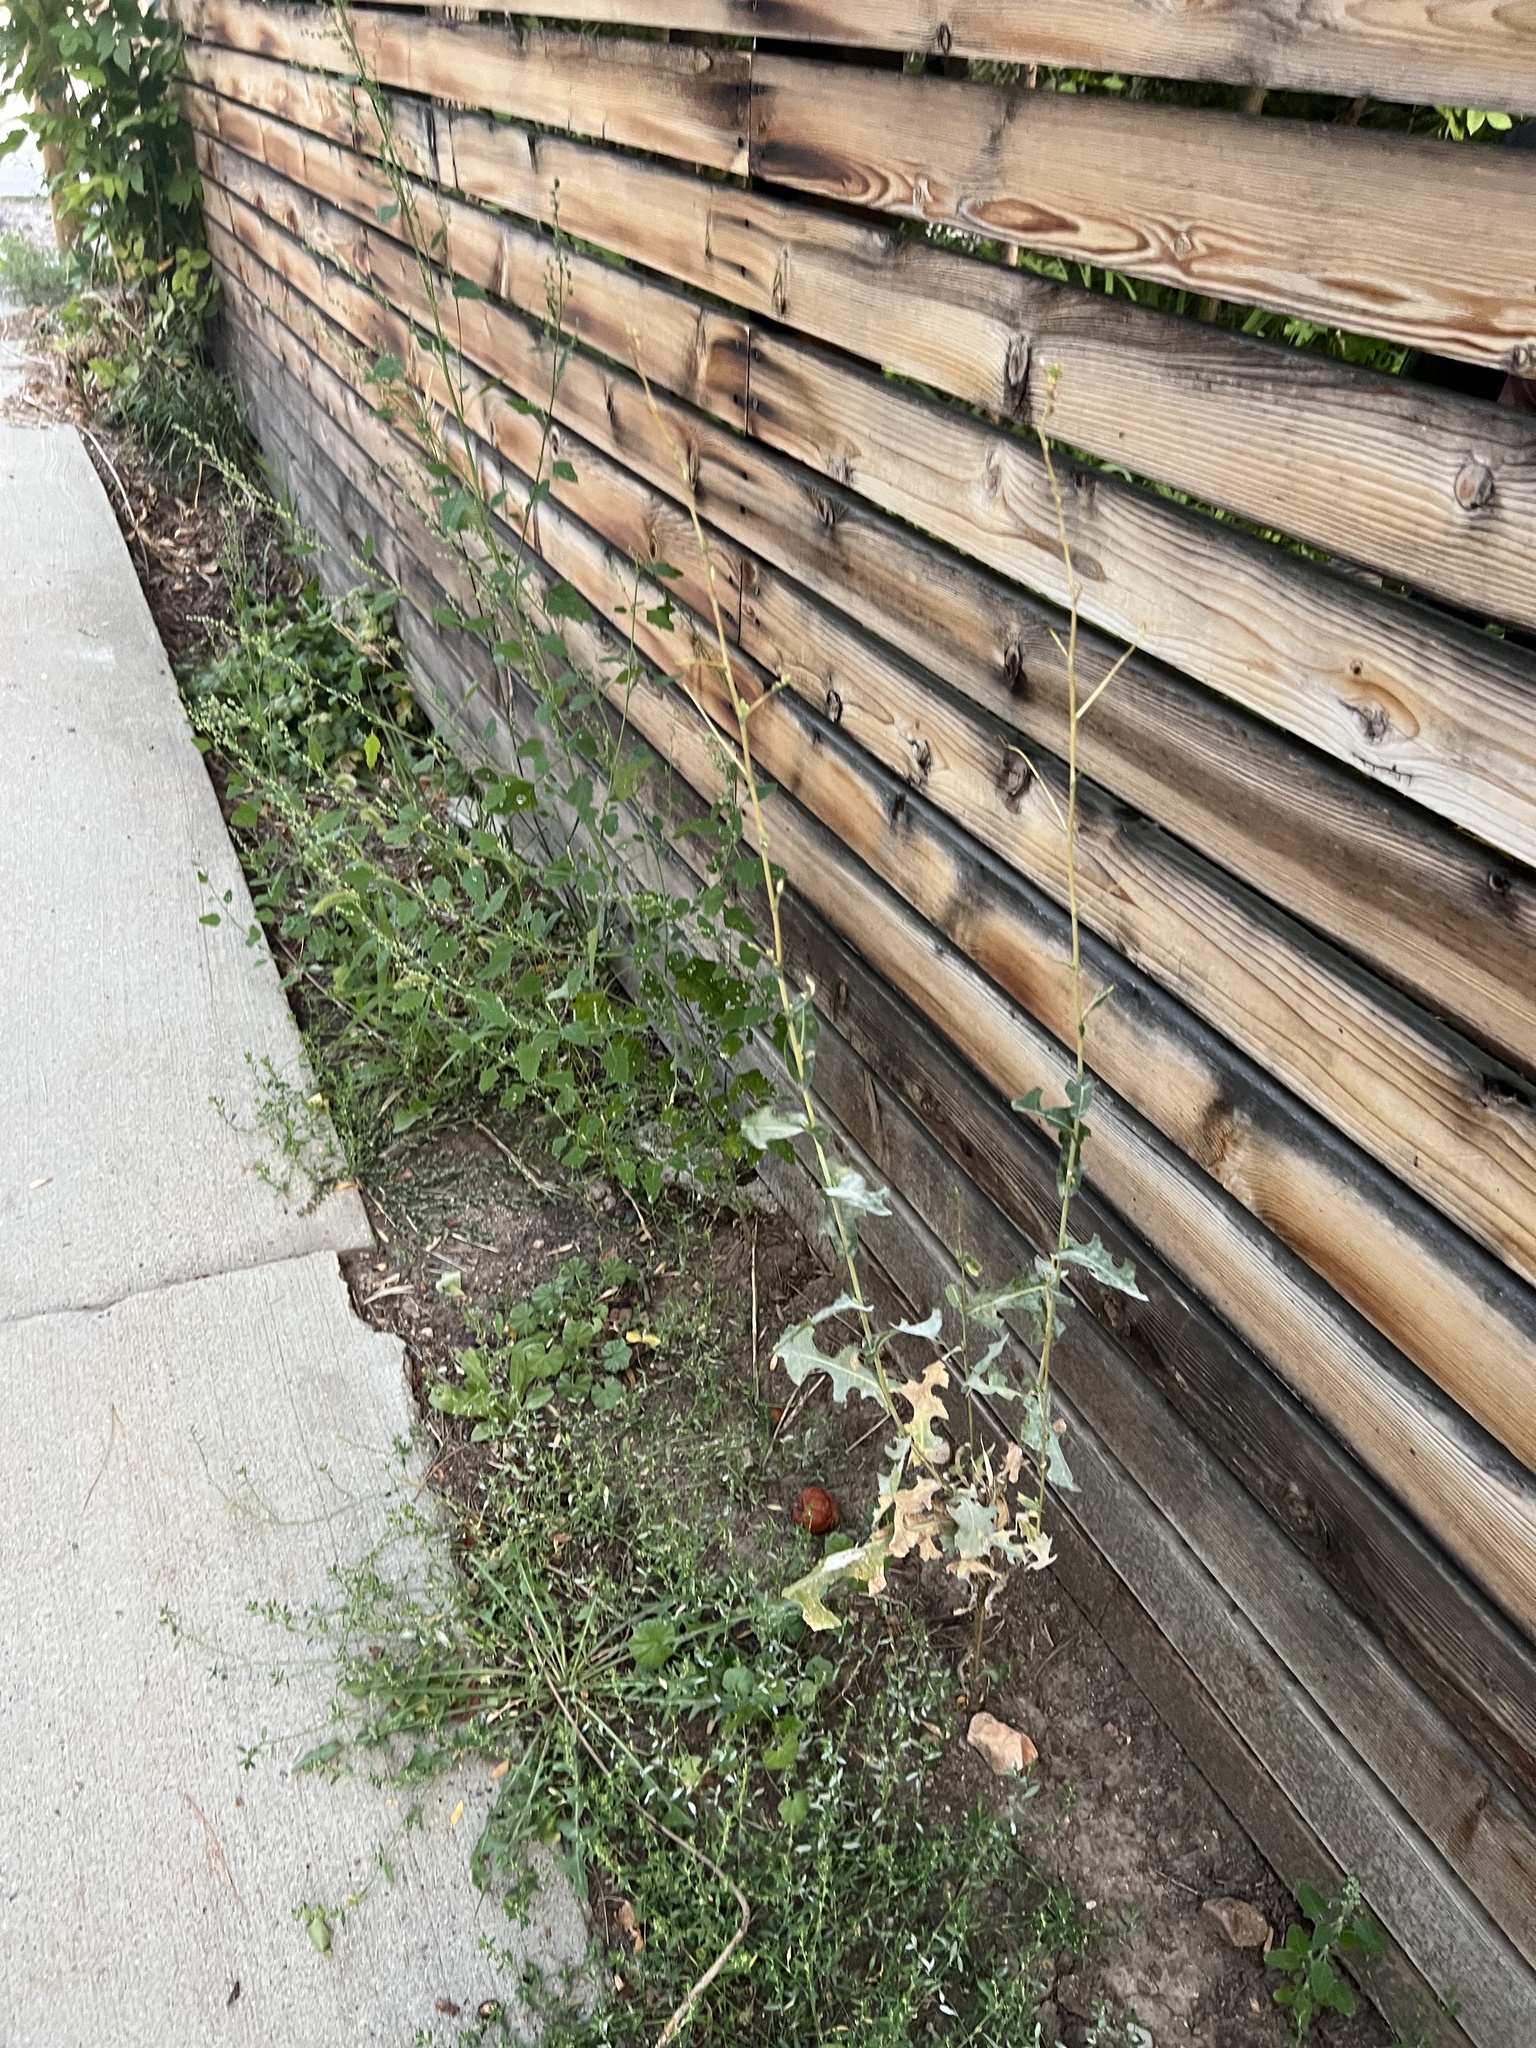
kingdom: Plantae
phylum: Tracheophyta
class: Magnoliopsida
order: Asterales
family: Asteraceae
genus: Lactuca
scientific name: Lactuca serriola
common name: Prickly lettuce
